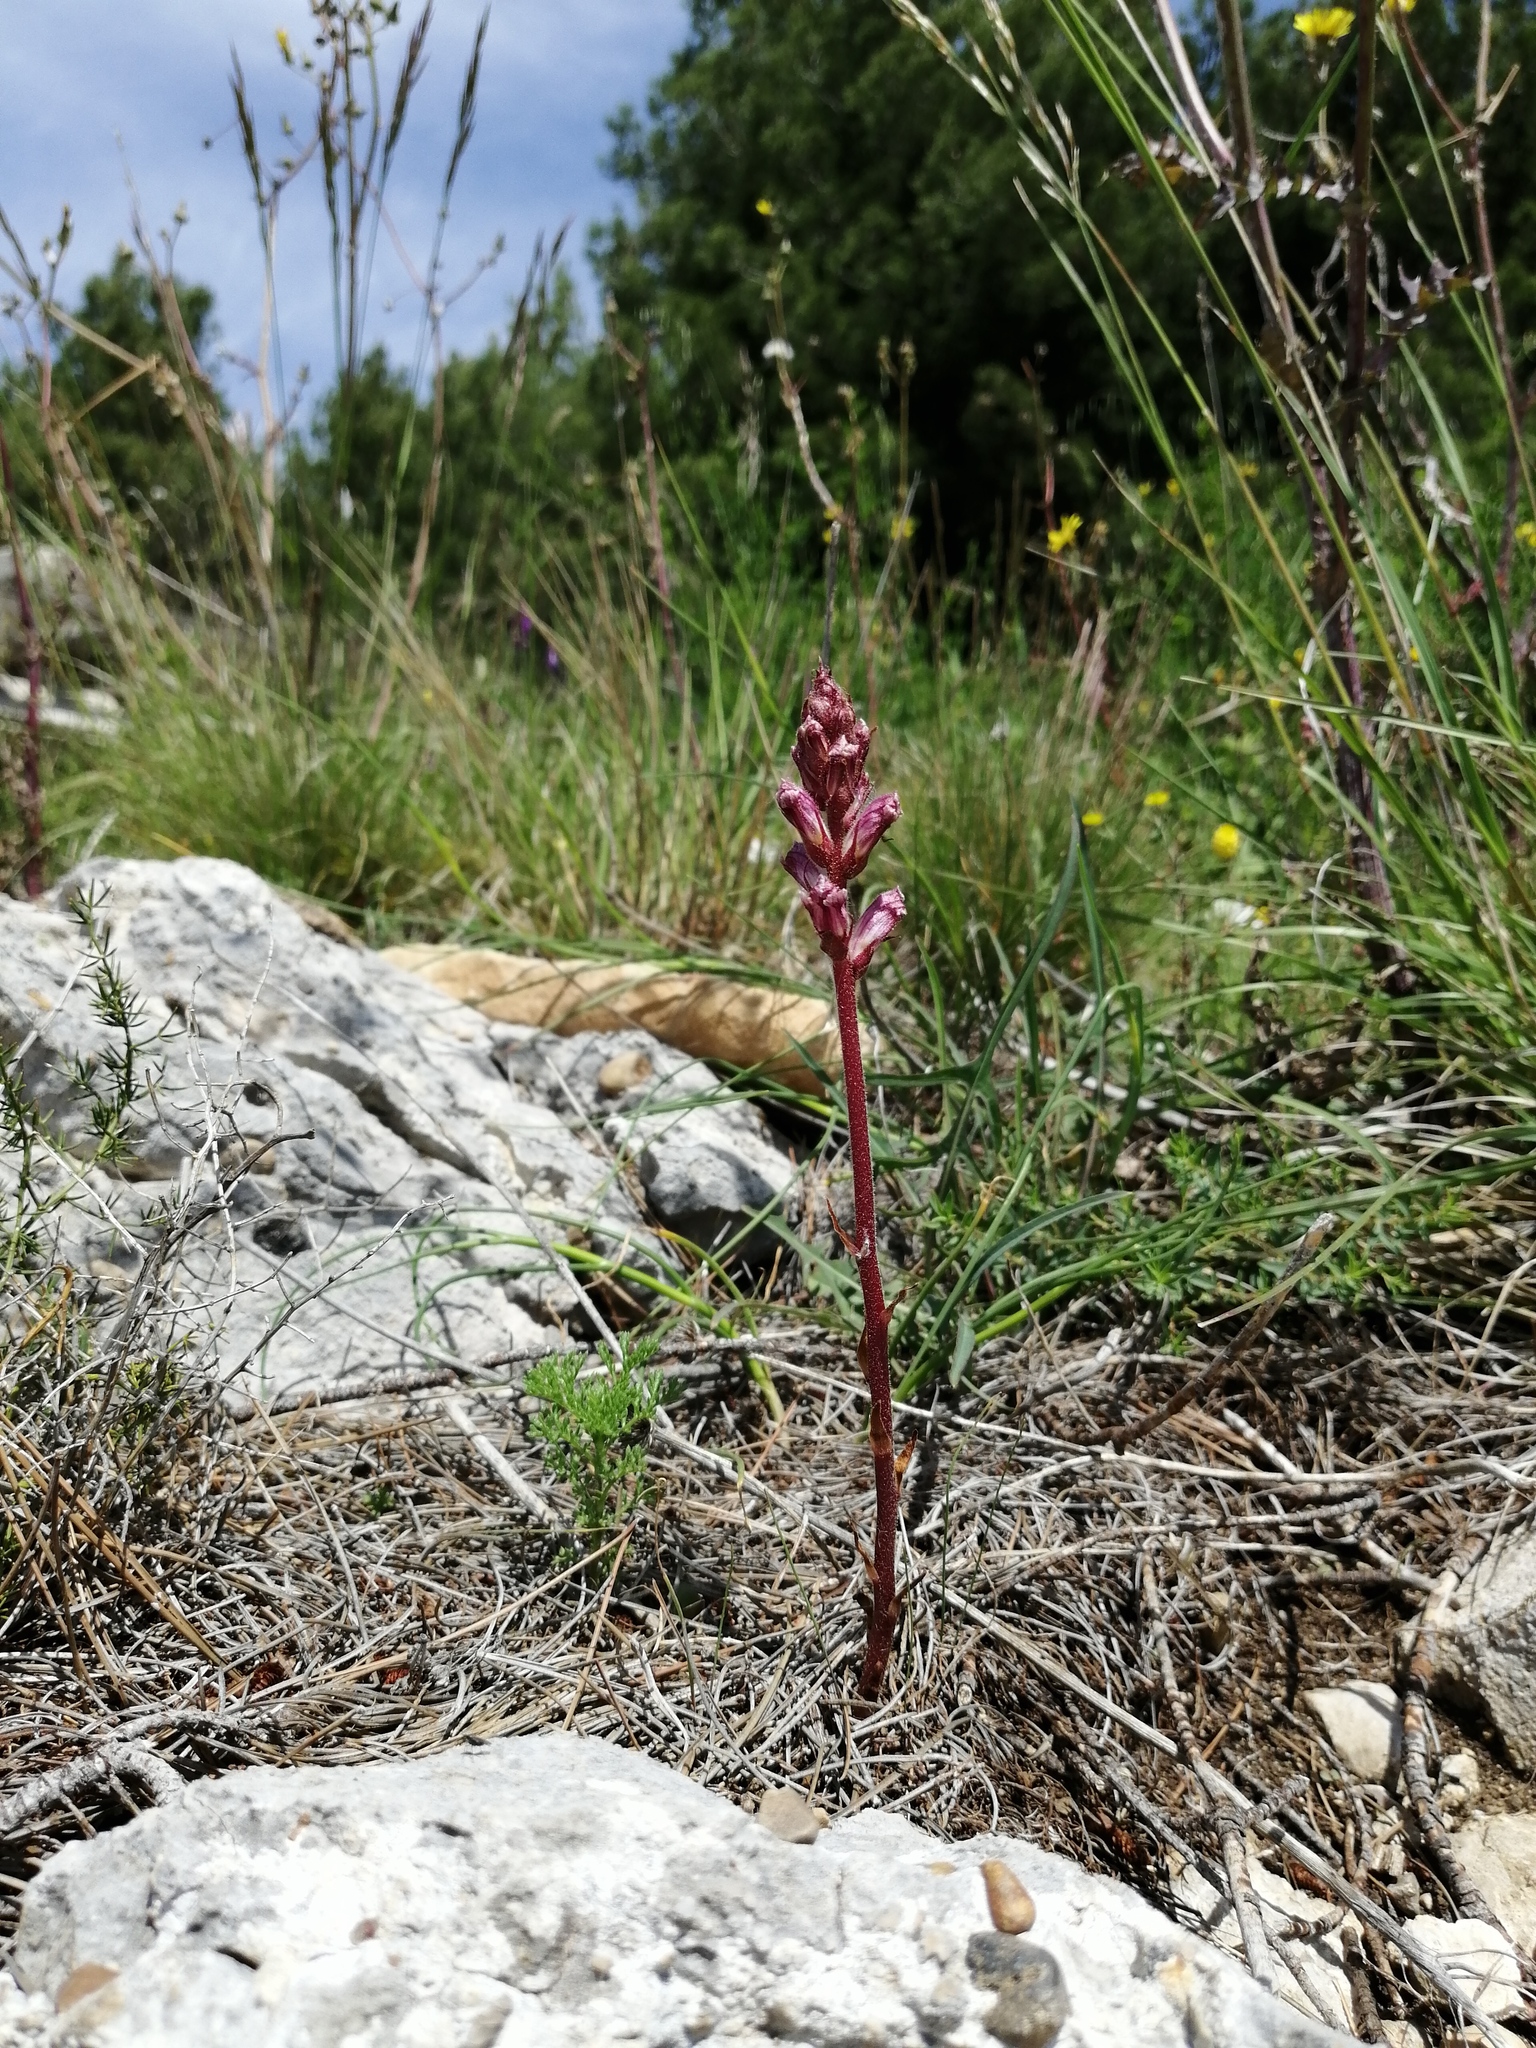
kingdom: Plantae
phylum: Tracheophyta
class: Magnoliopsida
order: Lamiales
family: Orobanchaceae
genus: Orobanche
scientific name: Orobanche minor
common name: Common broomrape
